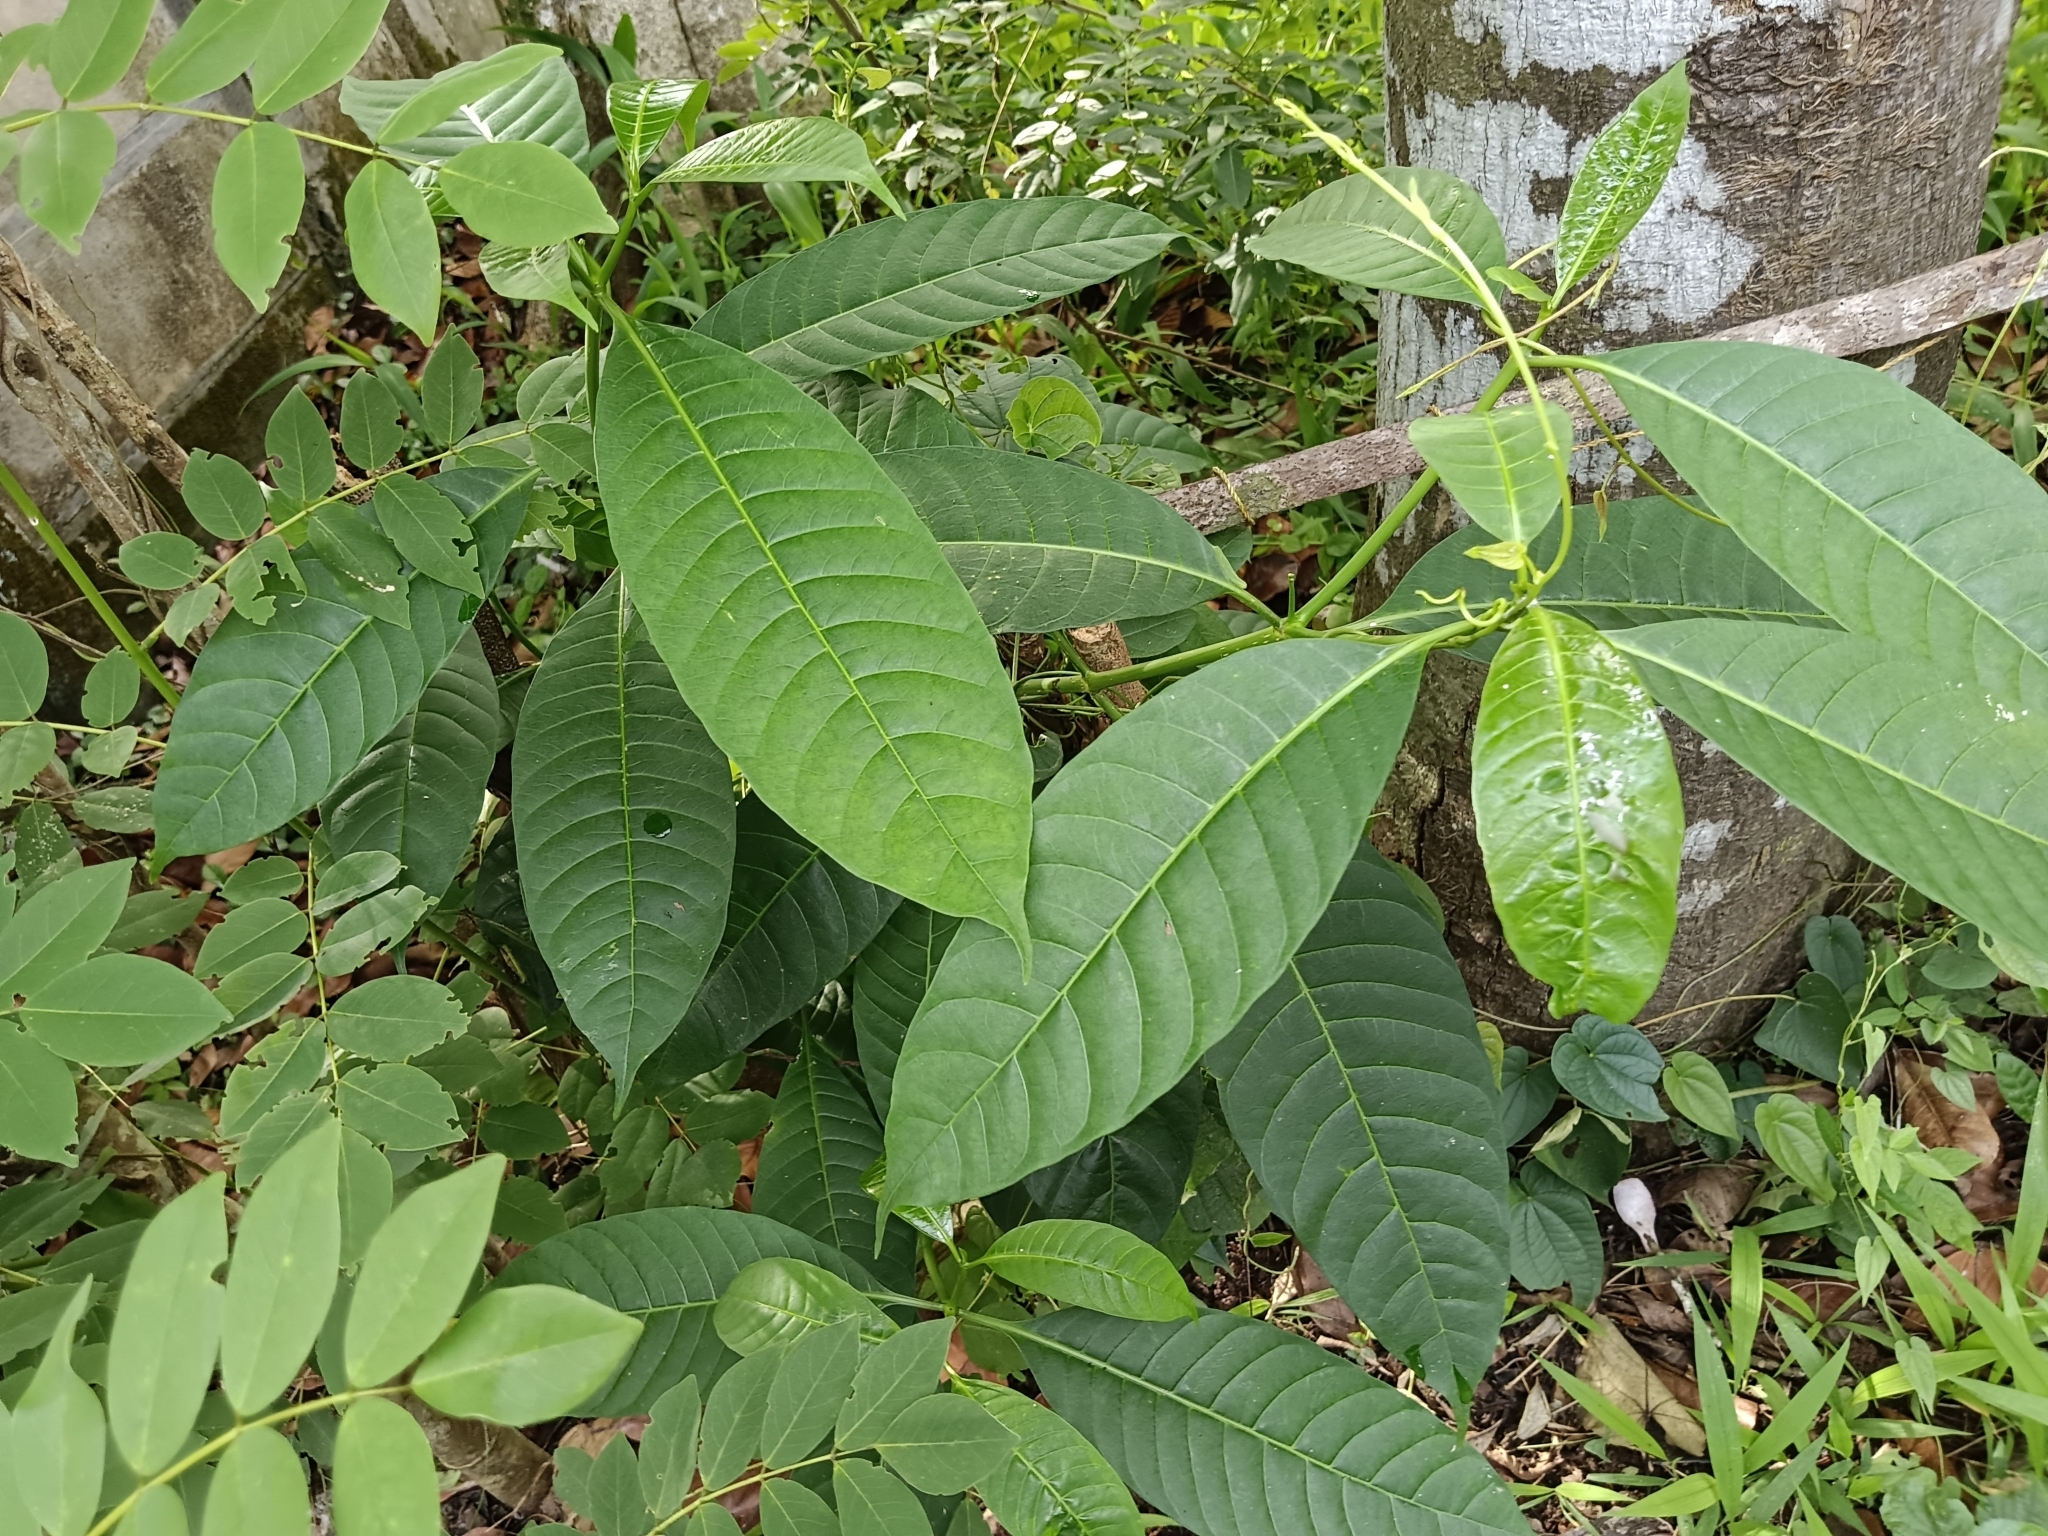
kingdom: Plantae
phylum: Tracheophyta
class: Magnoliopsida
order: Gentianales
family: Apocynaceae
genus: Tabernaemontana
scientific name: Tabernaemontana alternifolia
